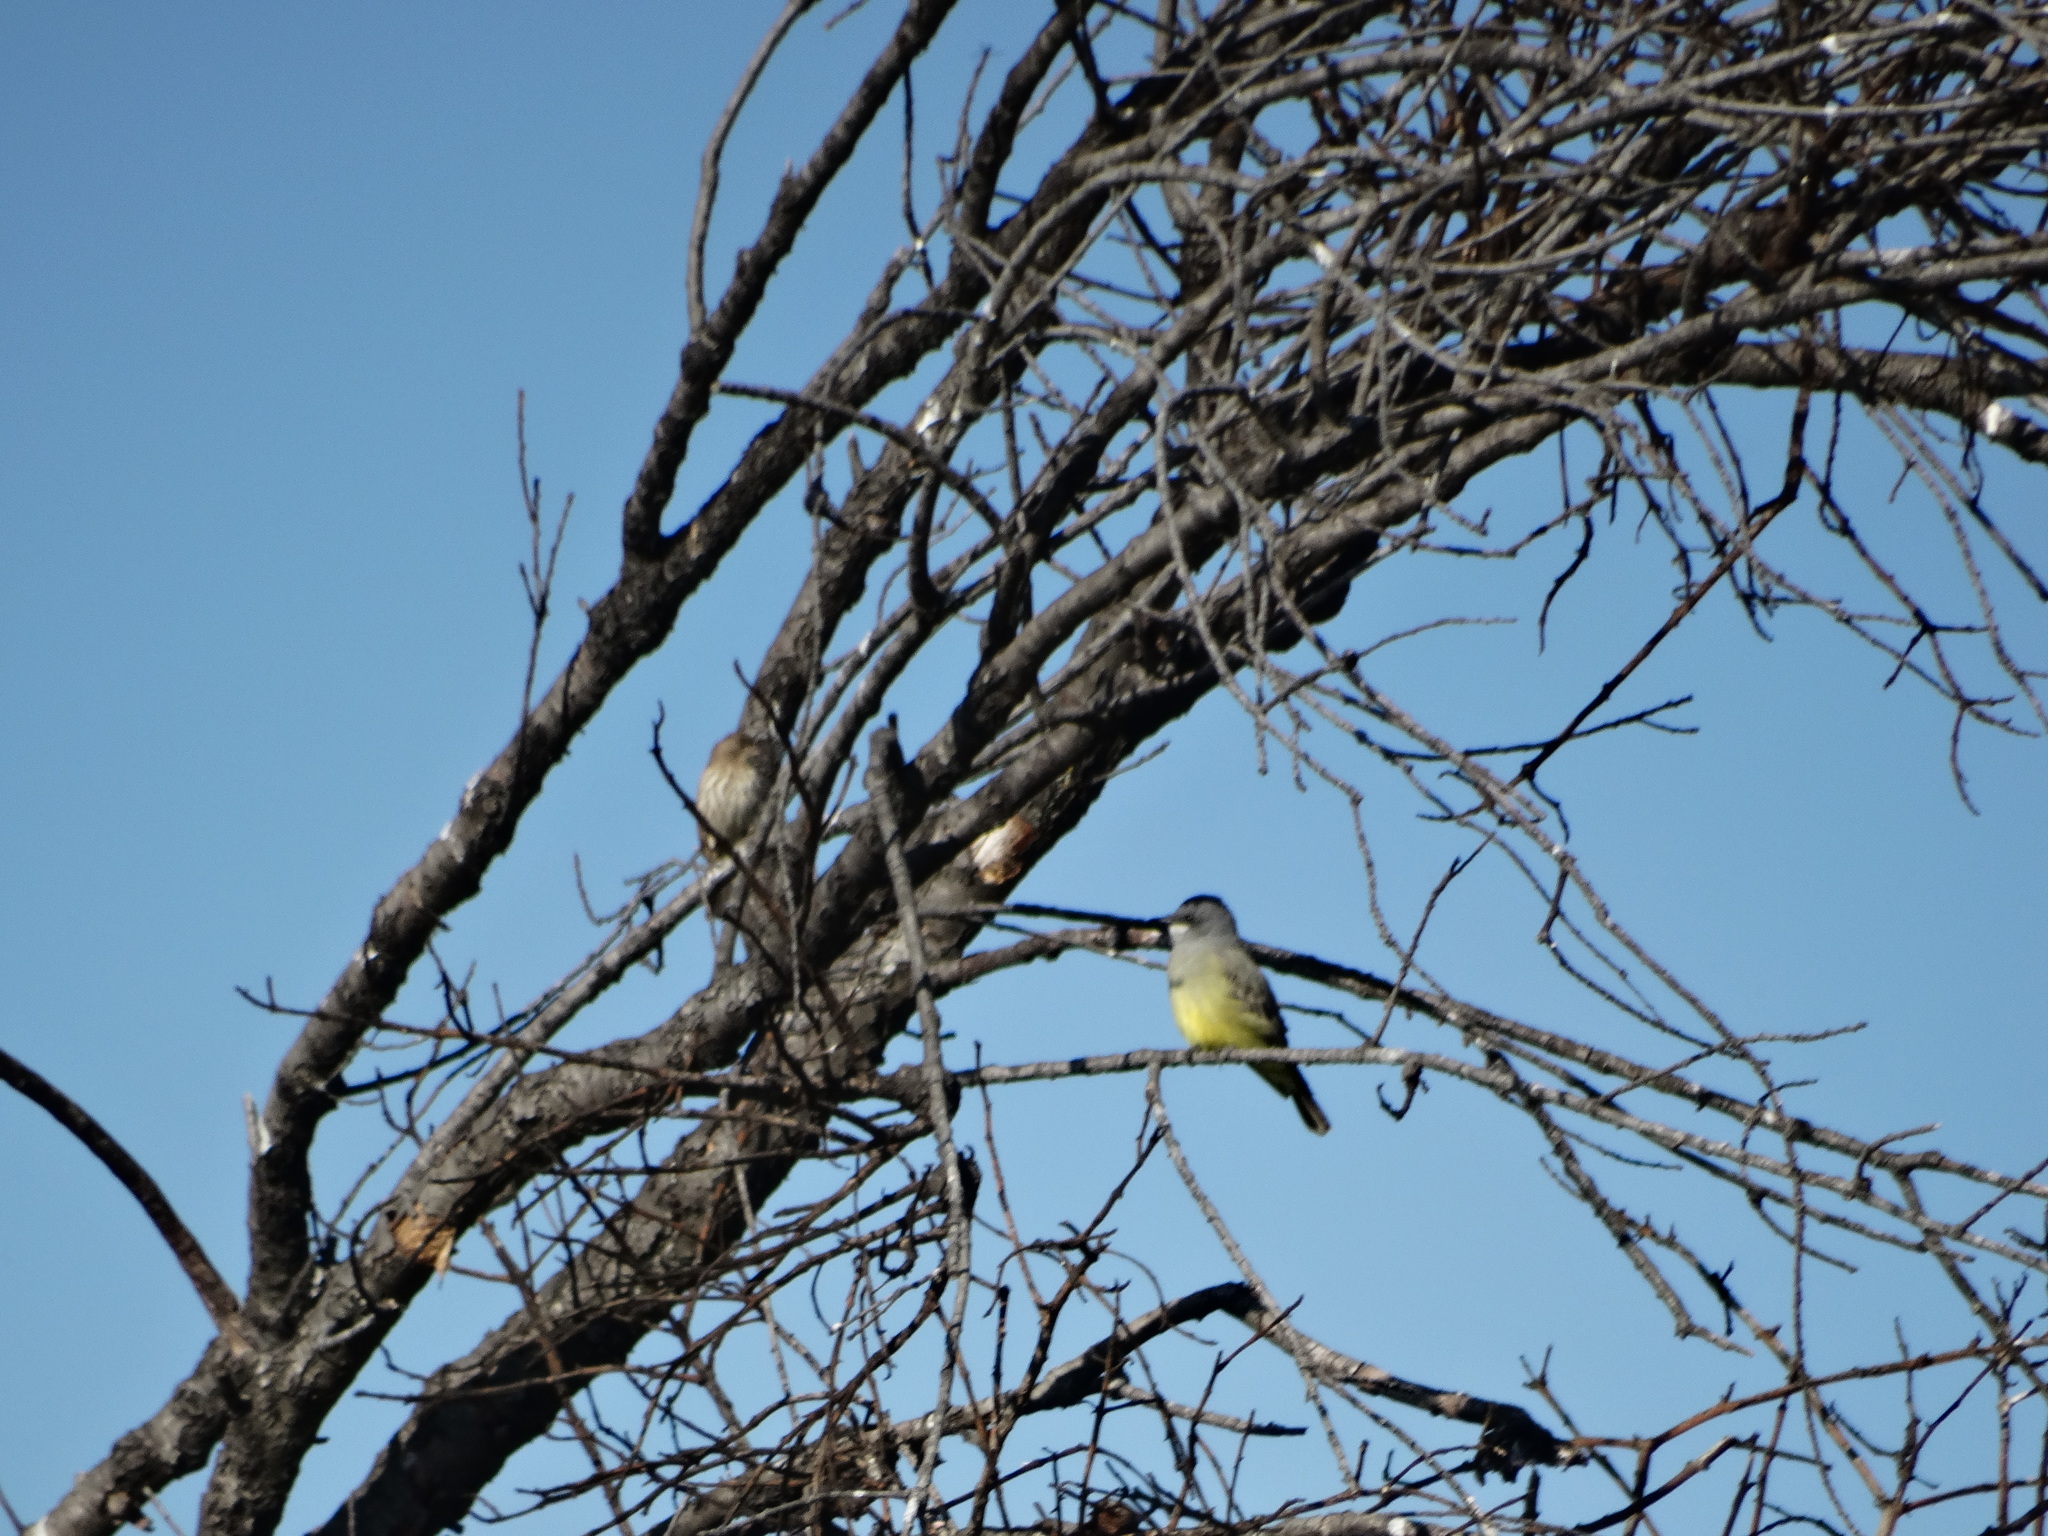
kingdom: Animalia
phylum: Chordata
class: Aves
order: Passeriformes
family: Tyrannidae
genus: Tyrannus
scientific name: Tyrannus vociferans
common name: Cassin's kingbird
